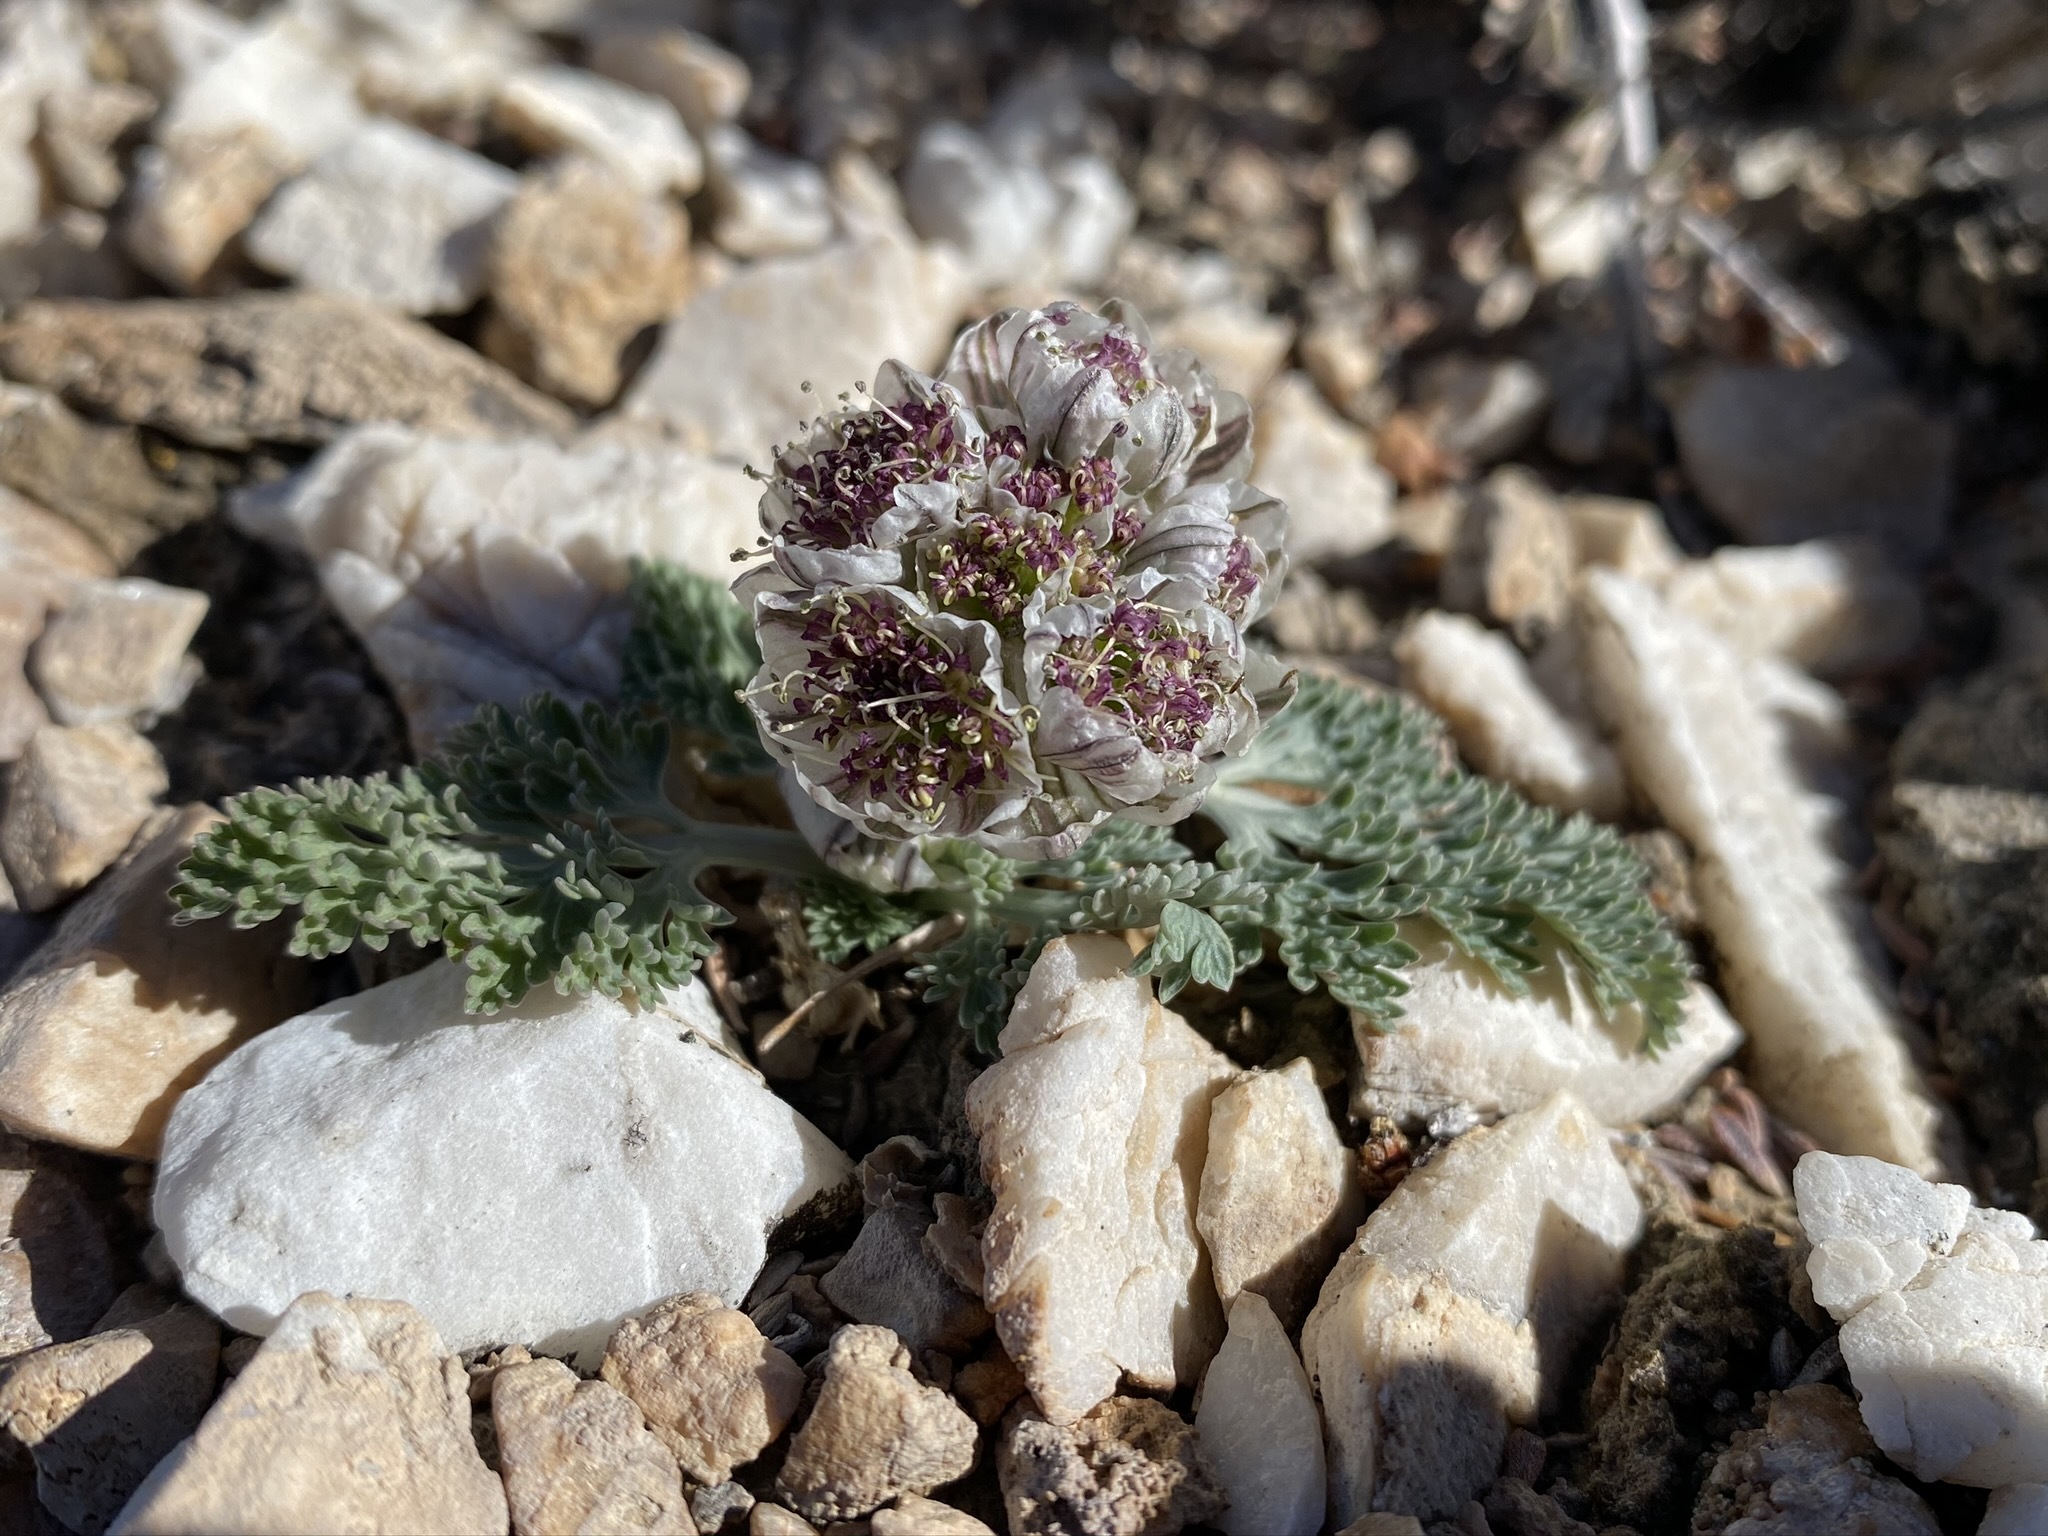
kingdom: Plantae
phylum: Tracheophyta
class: Magnoliopsida
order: Apiales
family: Apiaceae
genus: Vesper
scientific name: Vesper purpurascens
